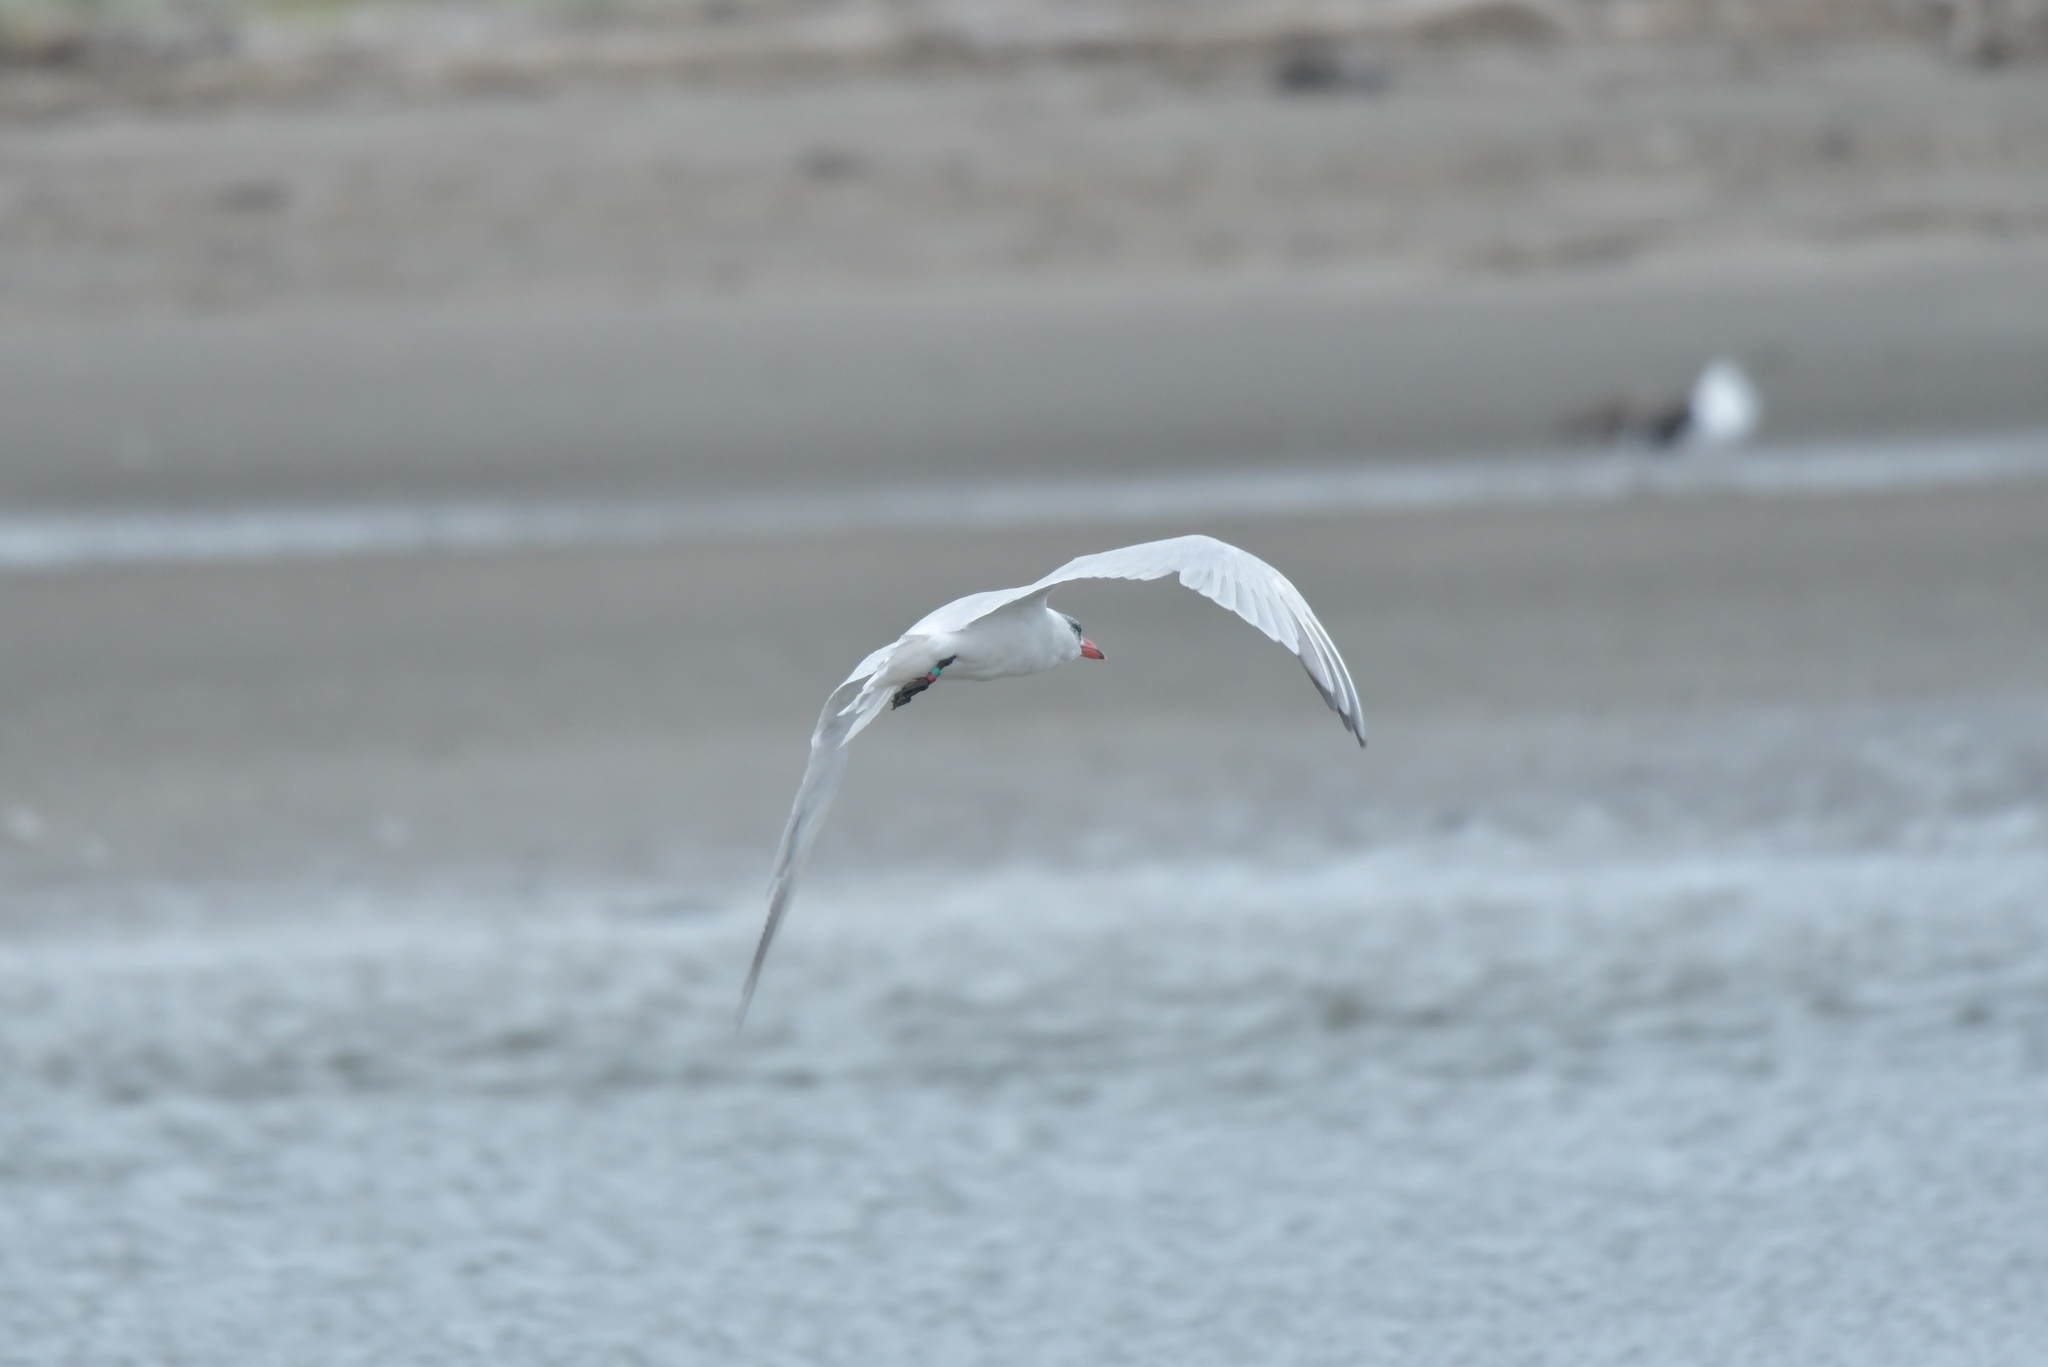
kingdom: Animalia
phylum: Chordata
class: Aves
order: Charadriiformes
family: Laridae
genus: Hydroprogne
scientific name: Hydroprogne caspia
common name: Caspian tern
